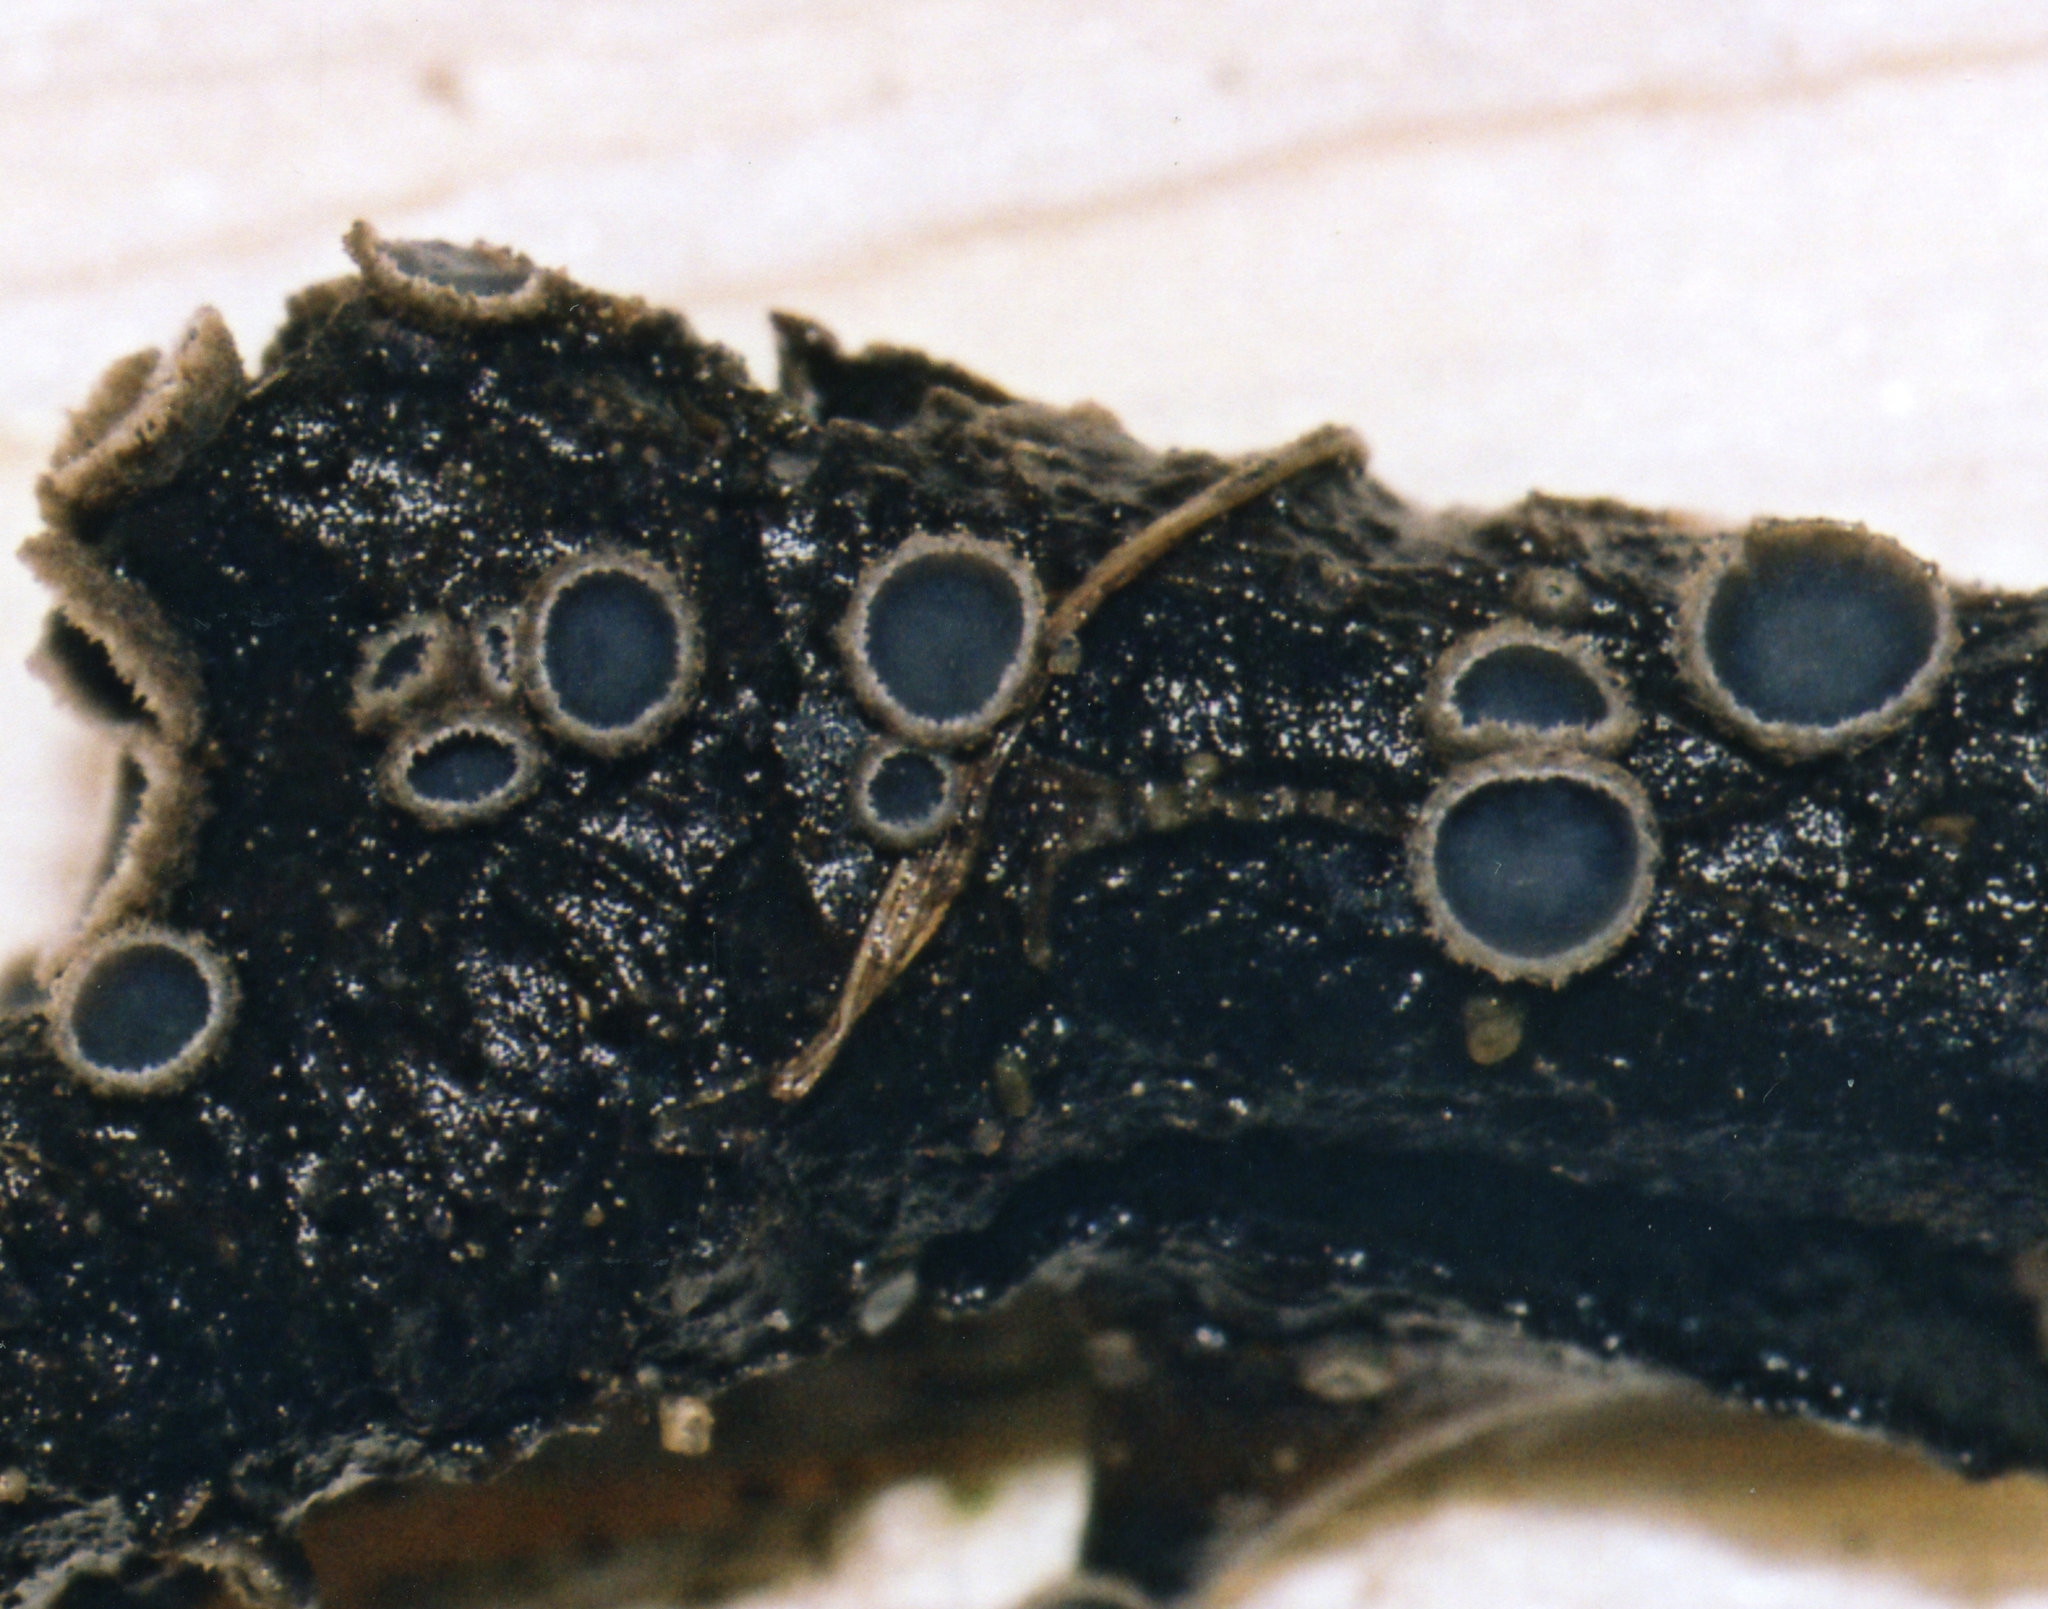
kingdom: Fungi
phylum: Ascomycota
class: Leotiomycetes
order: Helotiales
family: Mollisiaceae
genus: Mollisia
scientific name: Mollisia rosae
